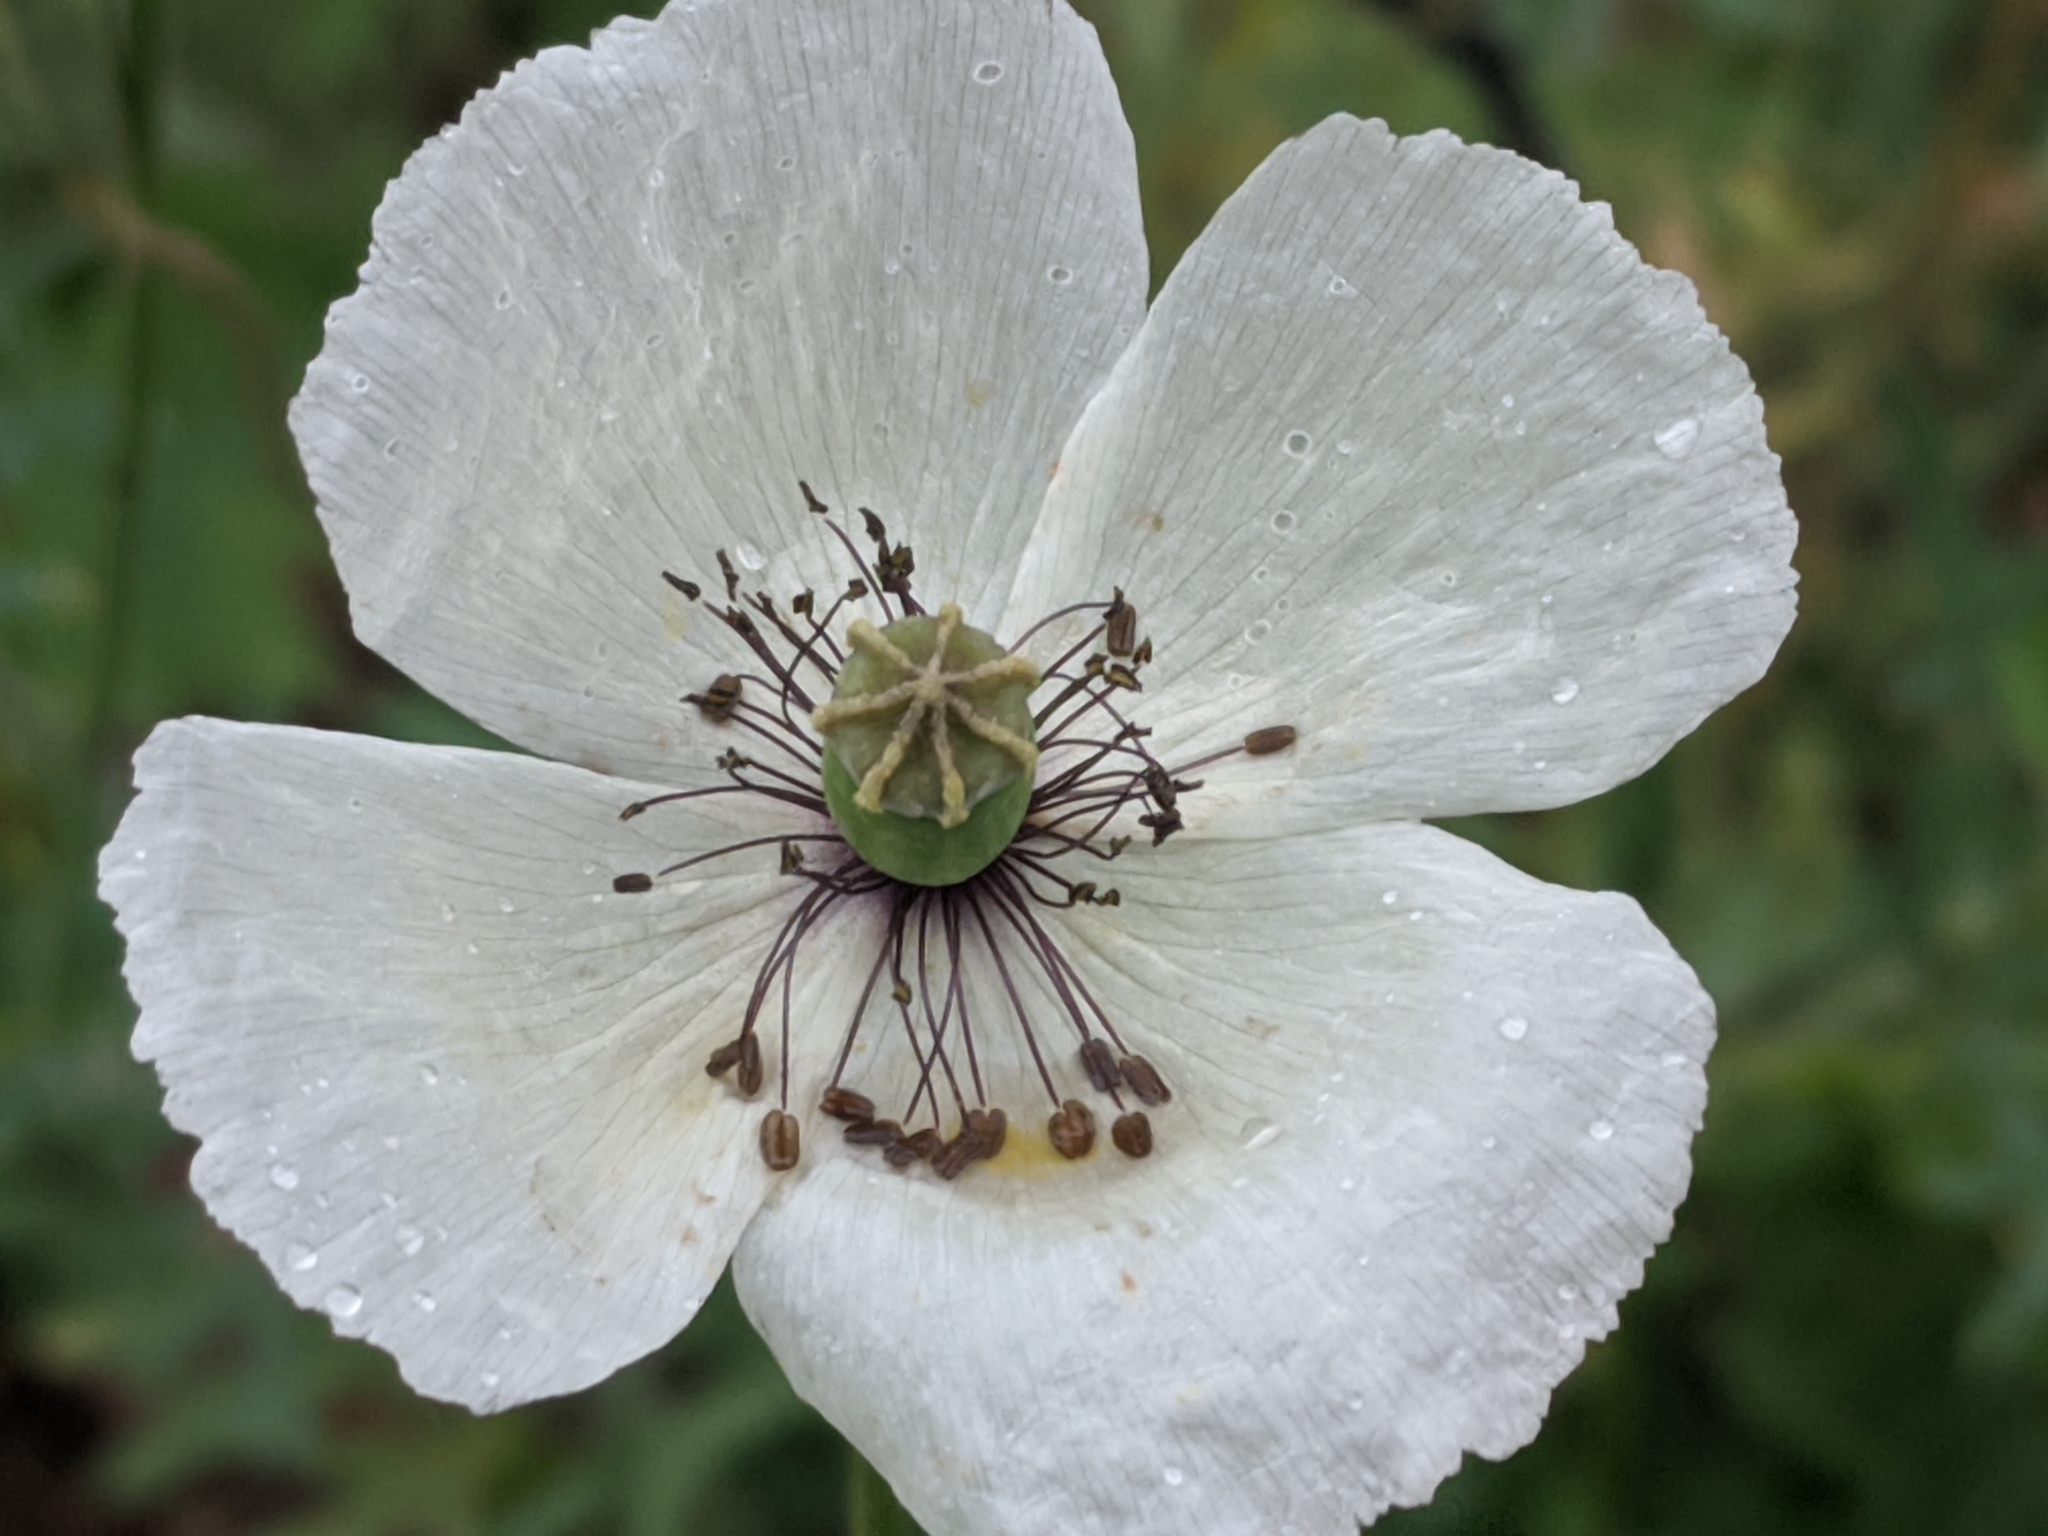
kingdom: Plantae
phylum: Tracheophyta
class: Magnoliopsida
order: Ranunculales
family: Papaveraceae
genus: Papaver
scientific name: Papaver dubium
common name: Long-headed poppy
